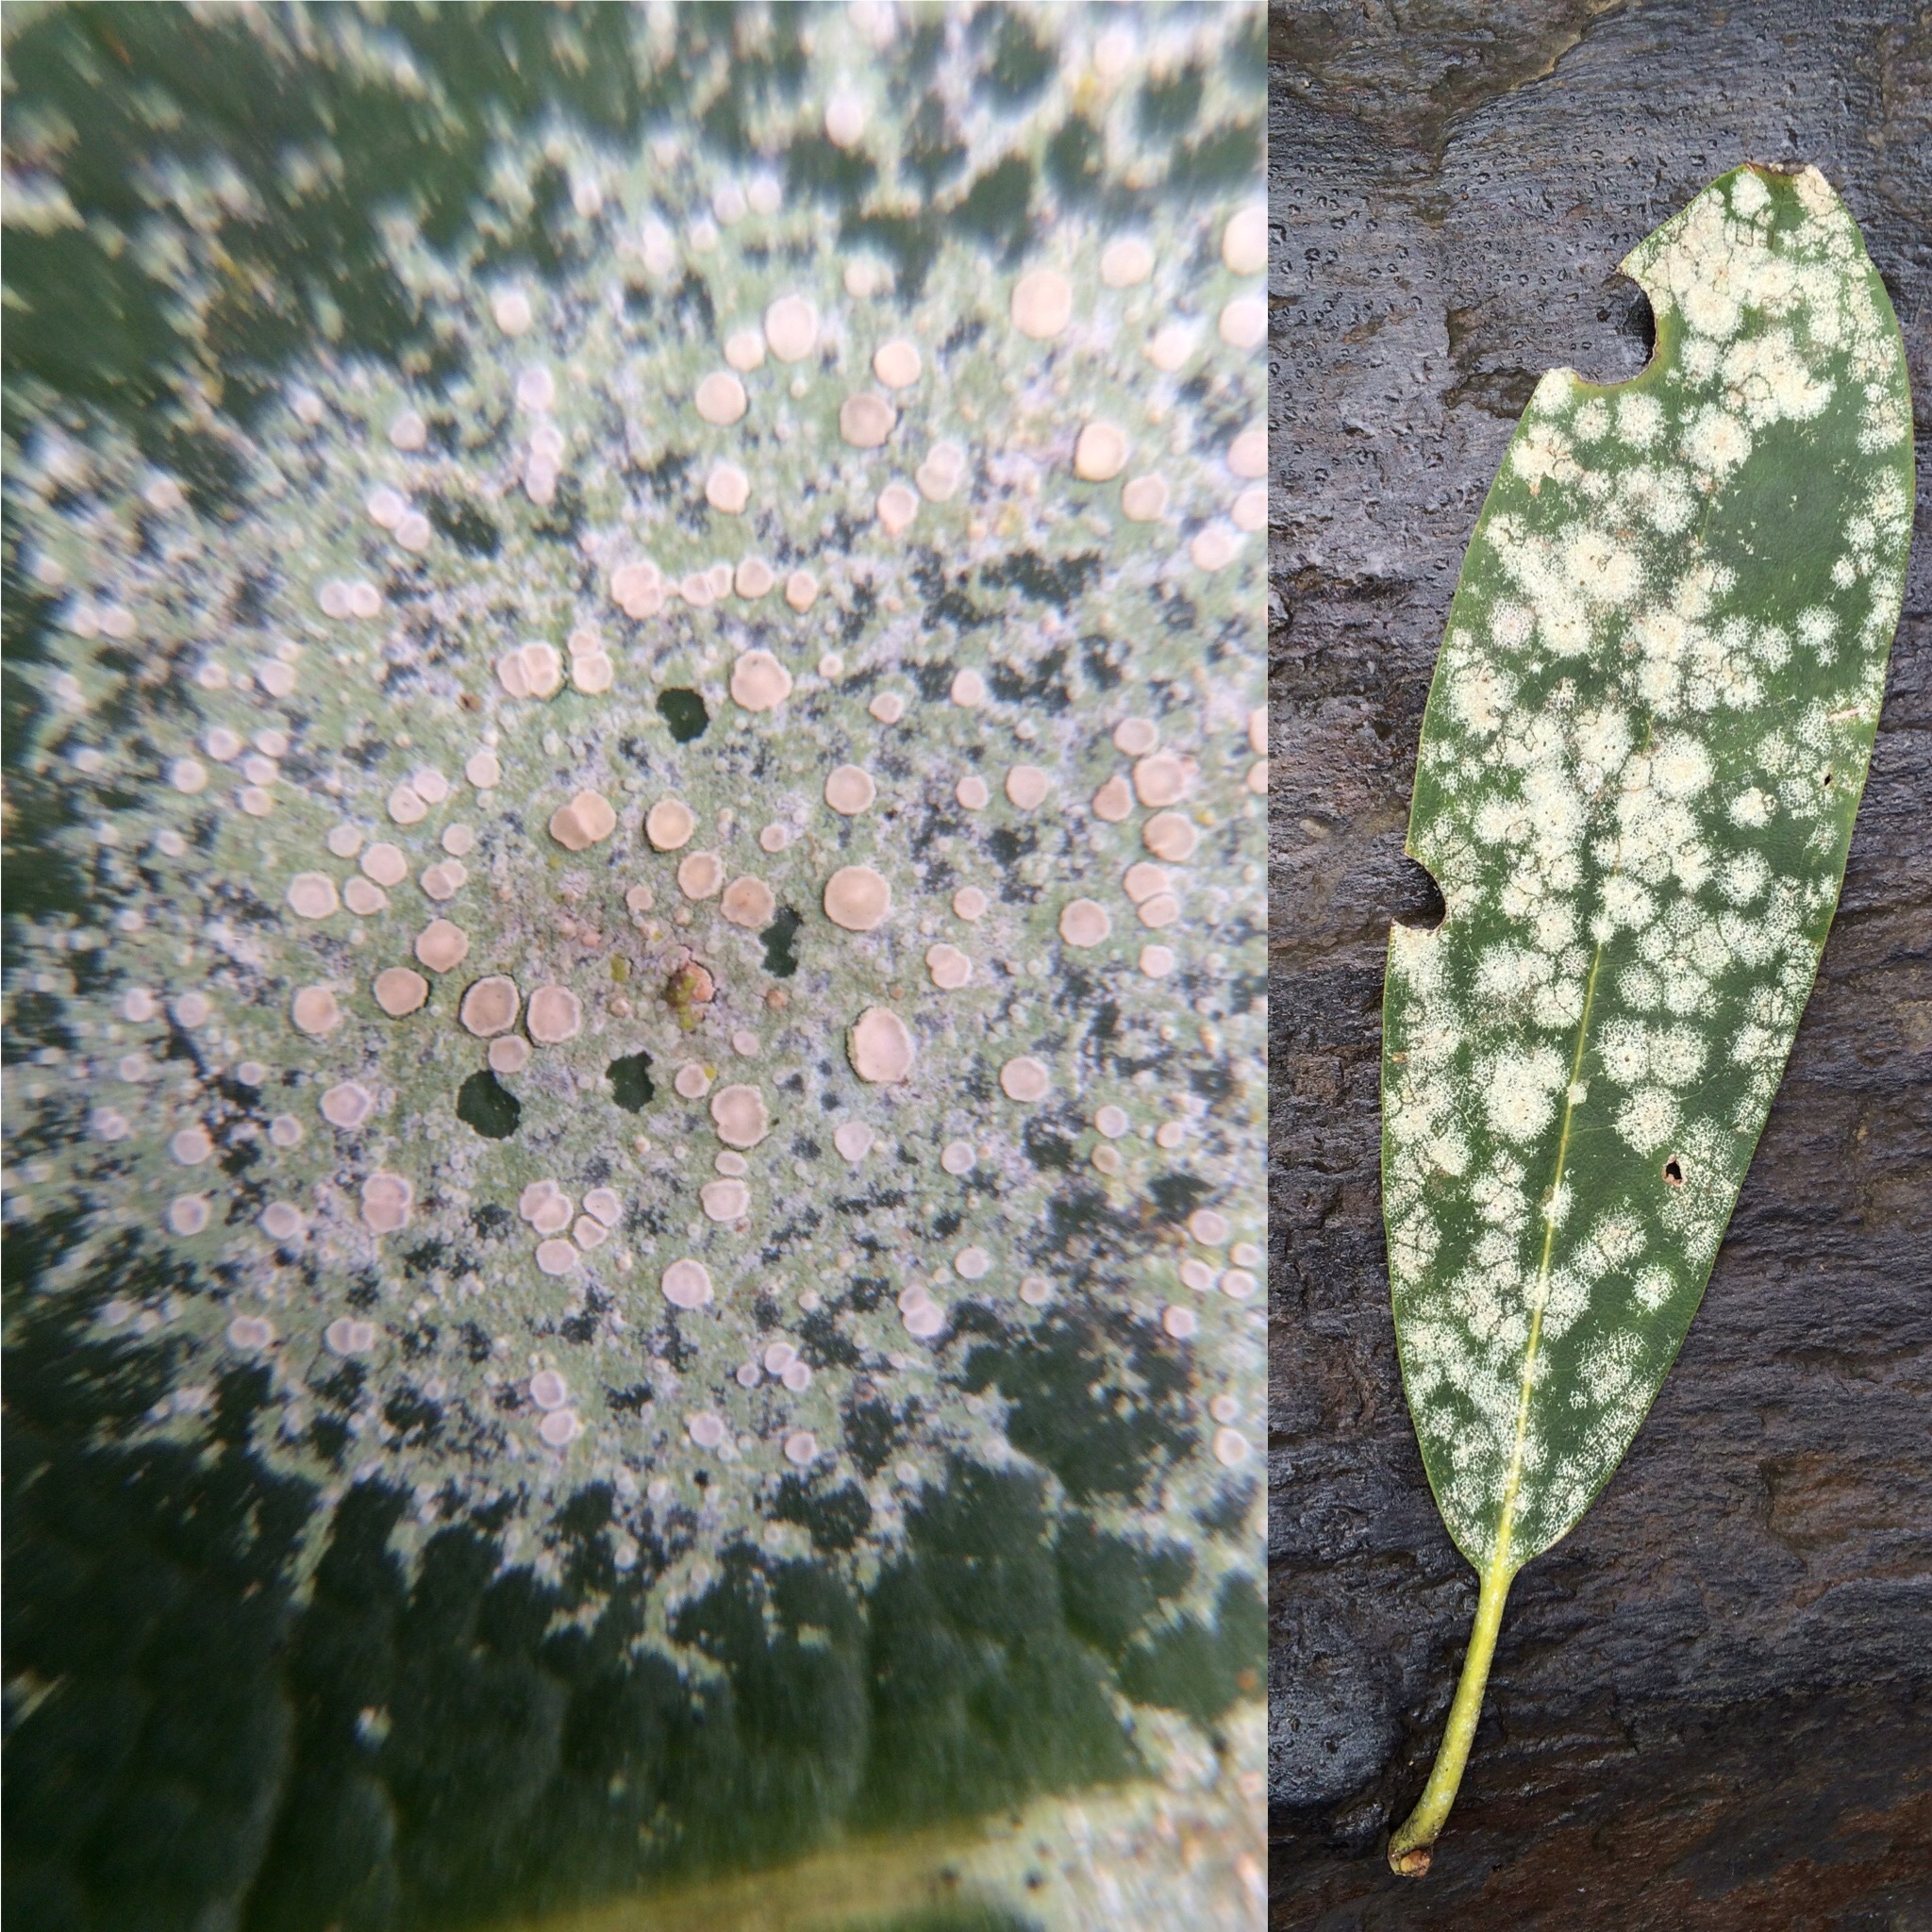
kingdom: Fungi
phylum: Ascomycota
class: Lecanoromycetes
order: Lecanorales
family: Byssolomataceae
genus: Fellhanera
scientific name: Fellhanera bouteillei
